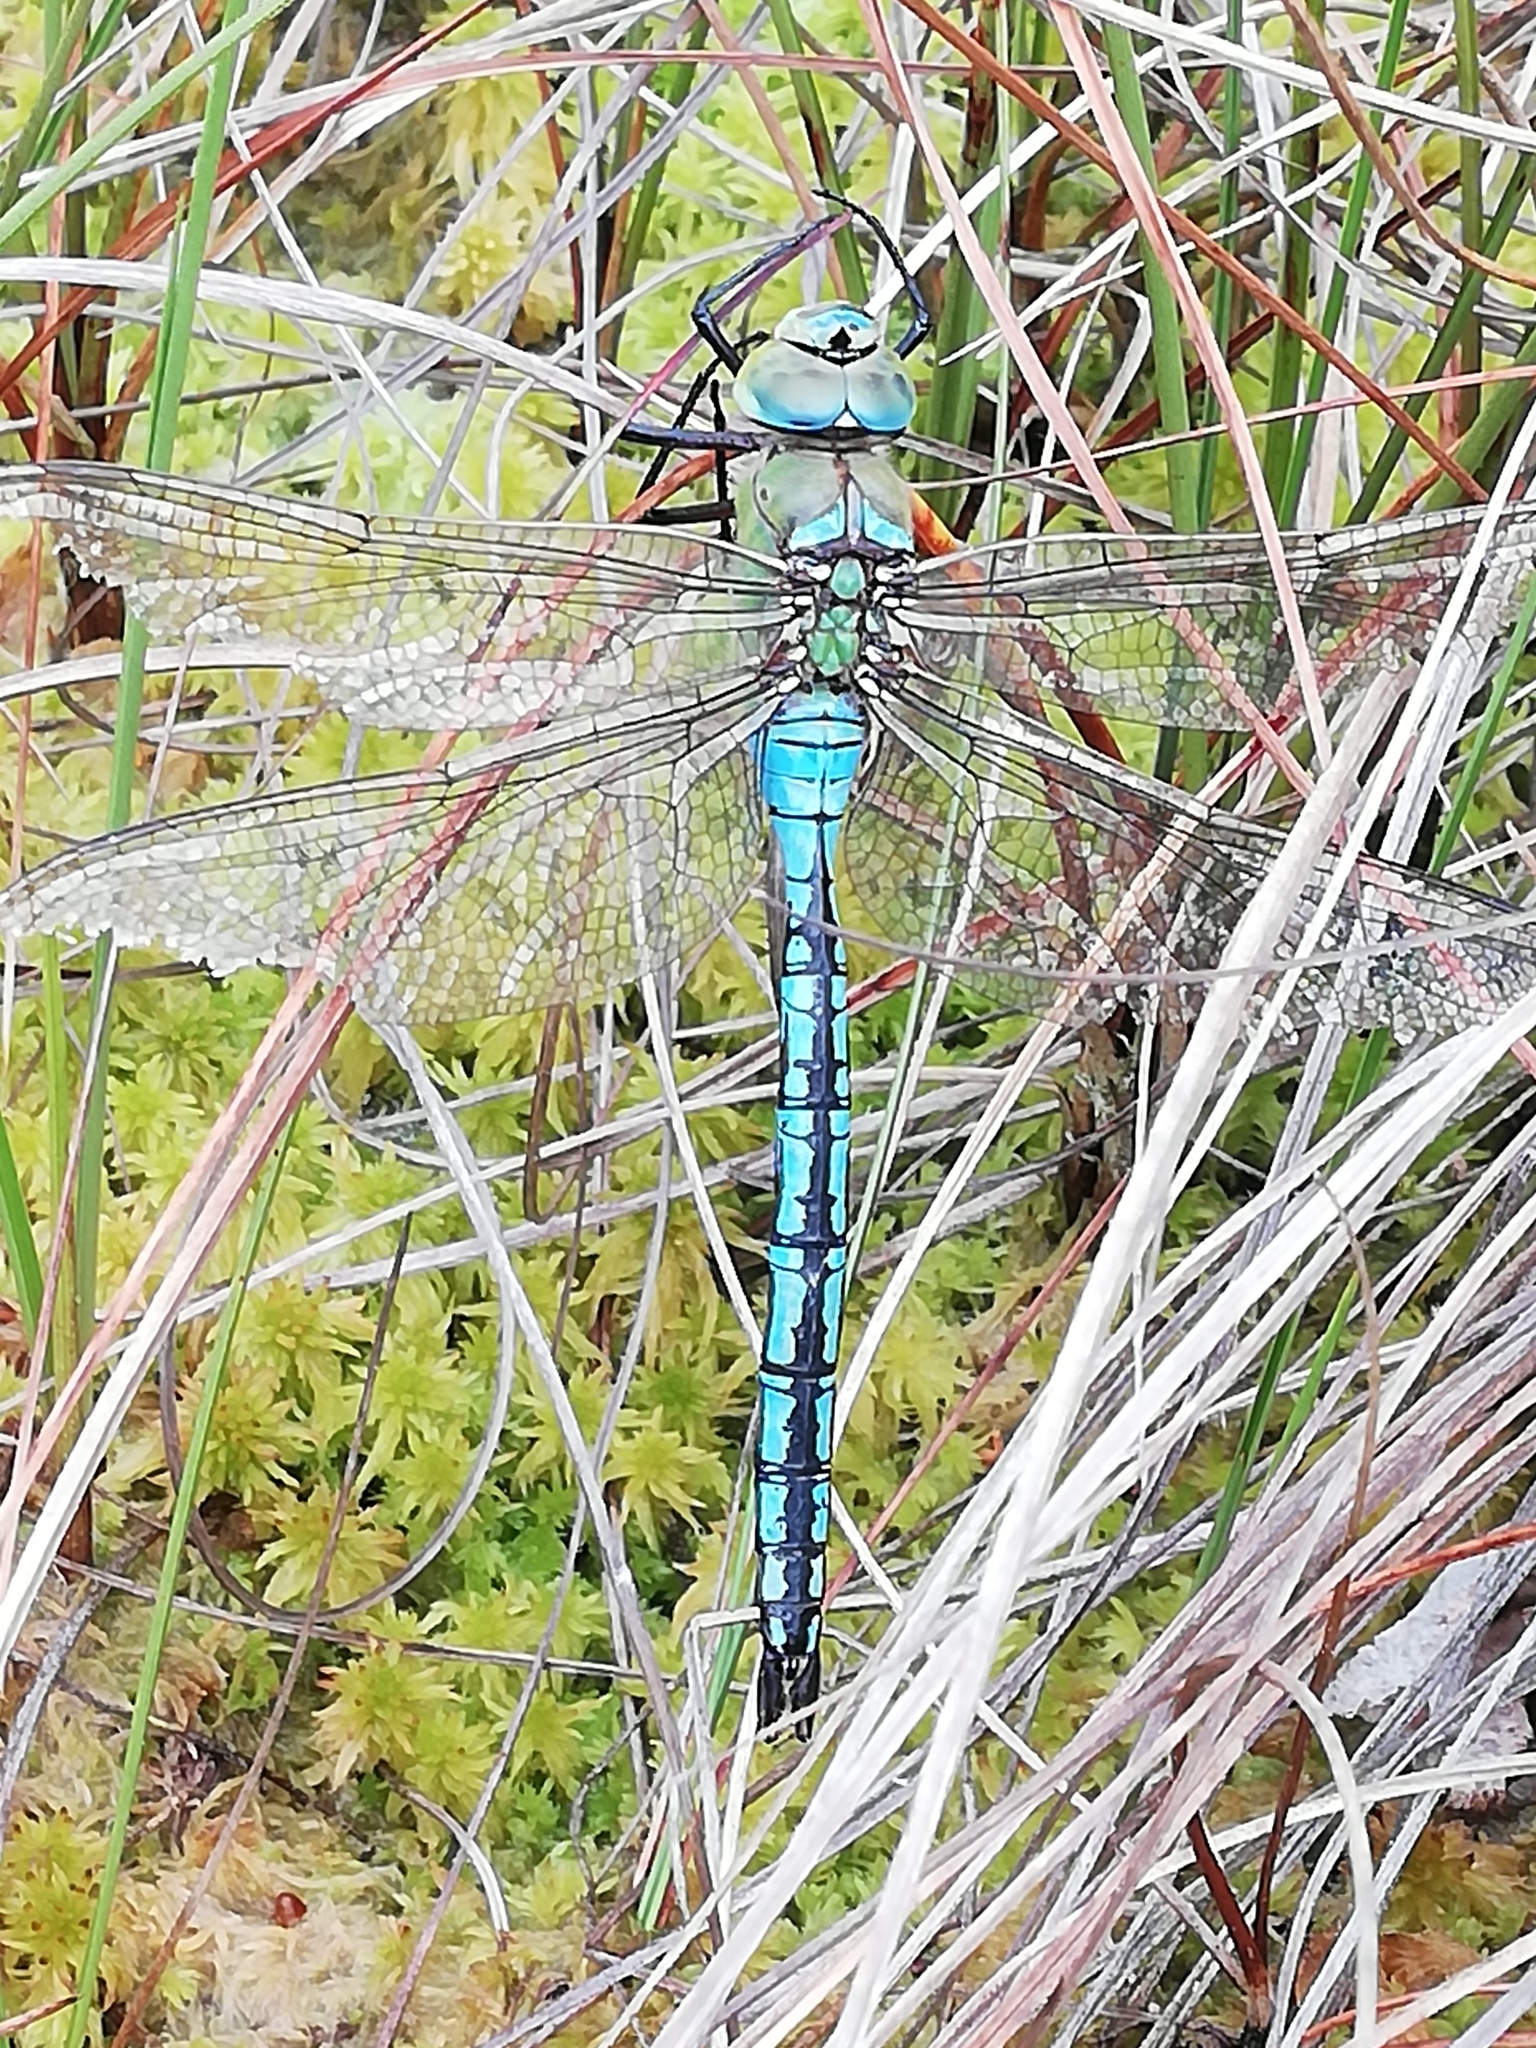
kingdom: Animalia
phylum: Arthropoda
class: Insecta
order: Odonata
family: Aeshnidae
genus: Anax
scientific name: Anax imperator
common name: Emperor dragonfly
